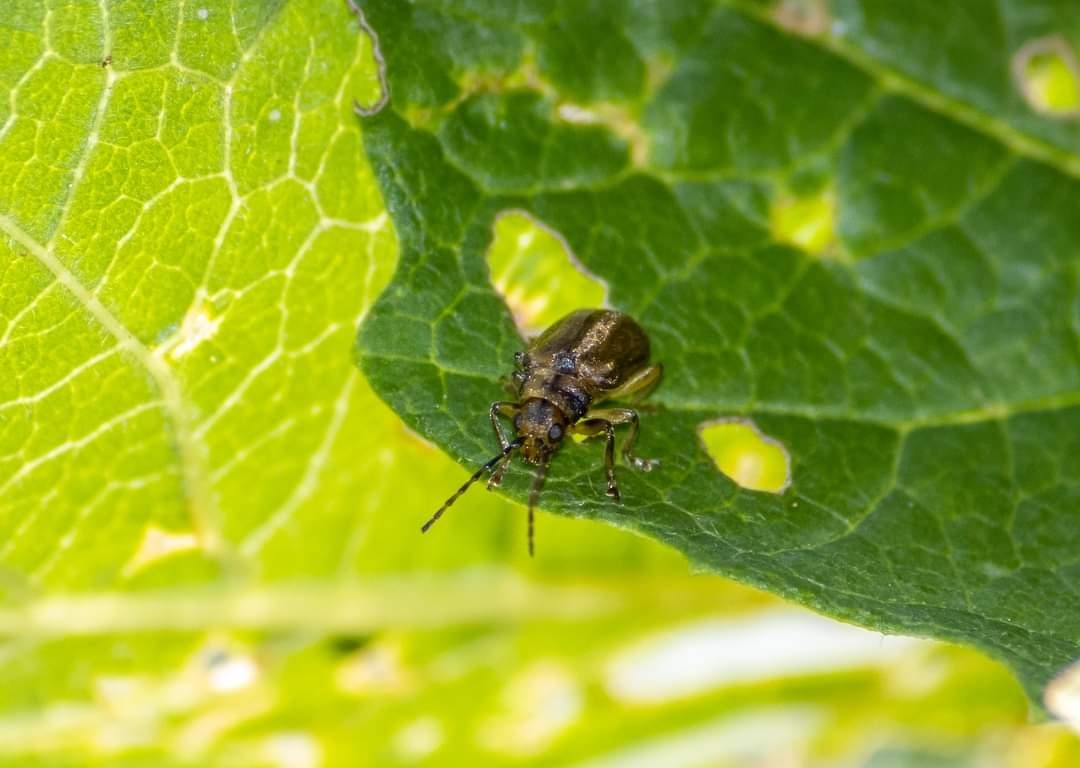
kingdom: Animalia
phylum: Arthropoda
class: Insecta
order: Coleoptera
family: Chrysomelidae
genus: Pyrrhalta
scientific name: Pyrrhalta viburni
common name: Guelder-rose leaf beetle
